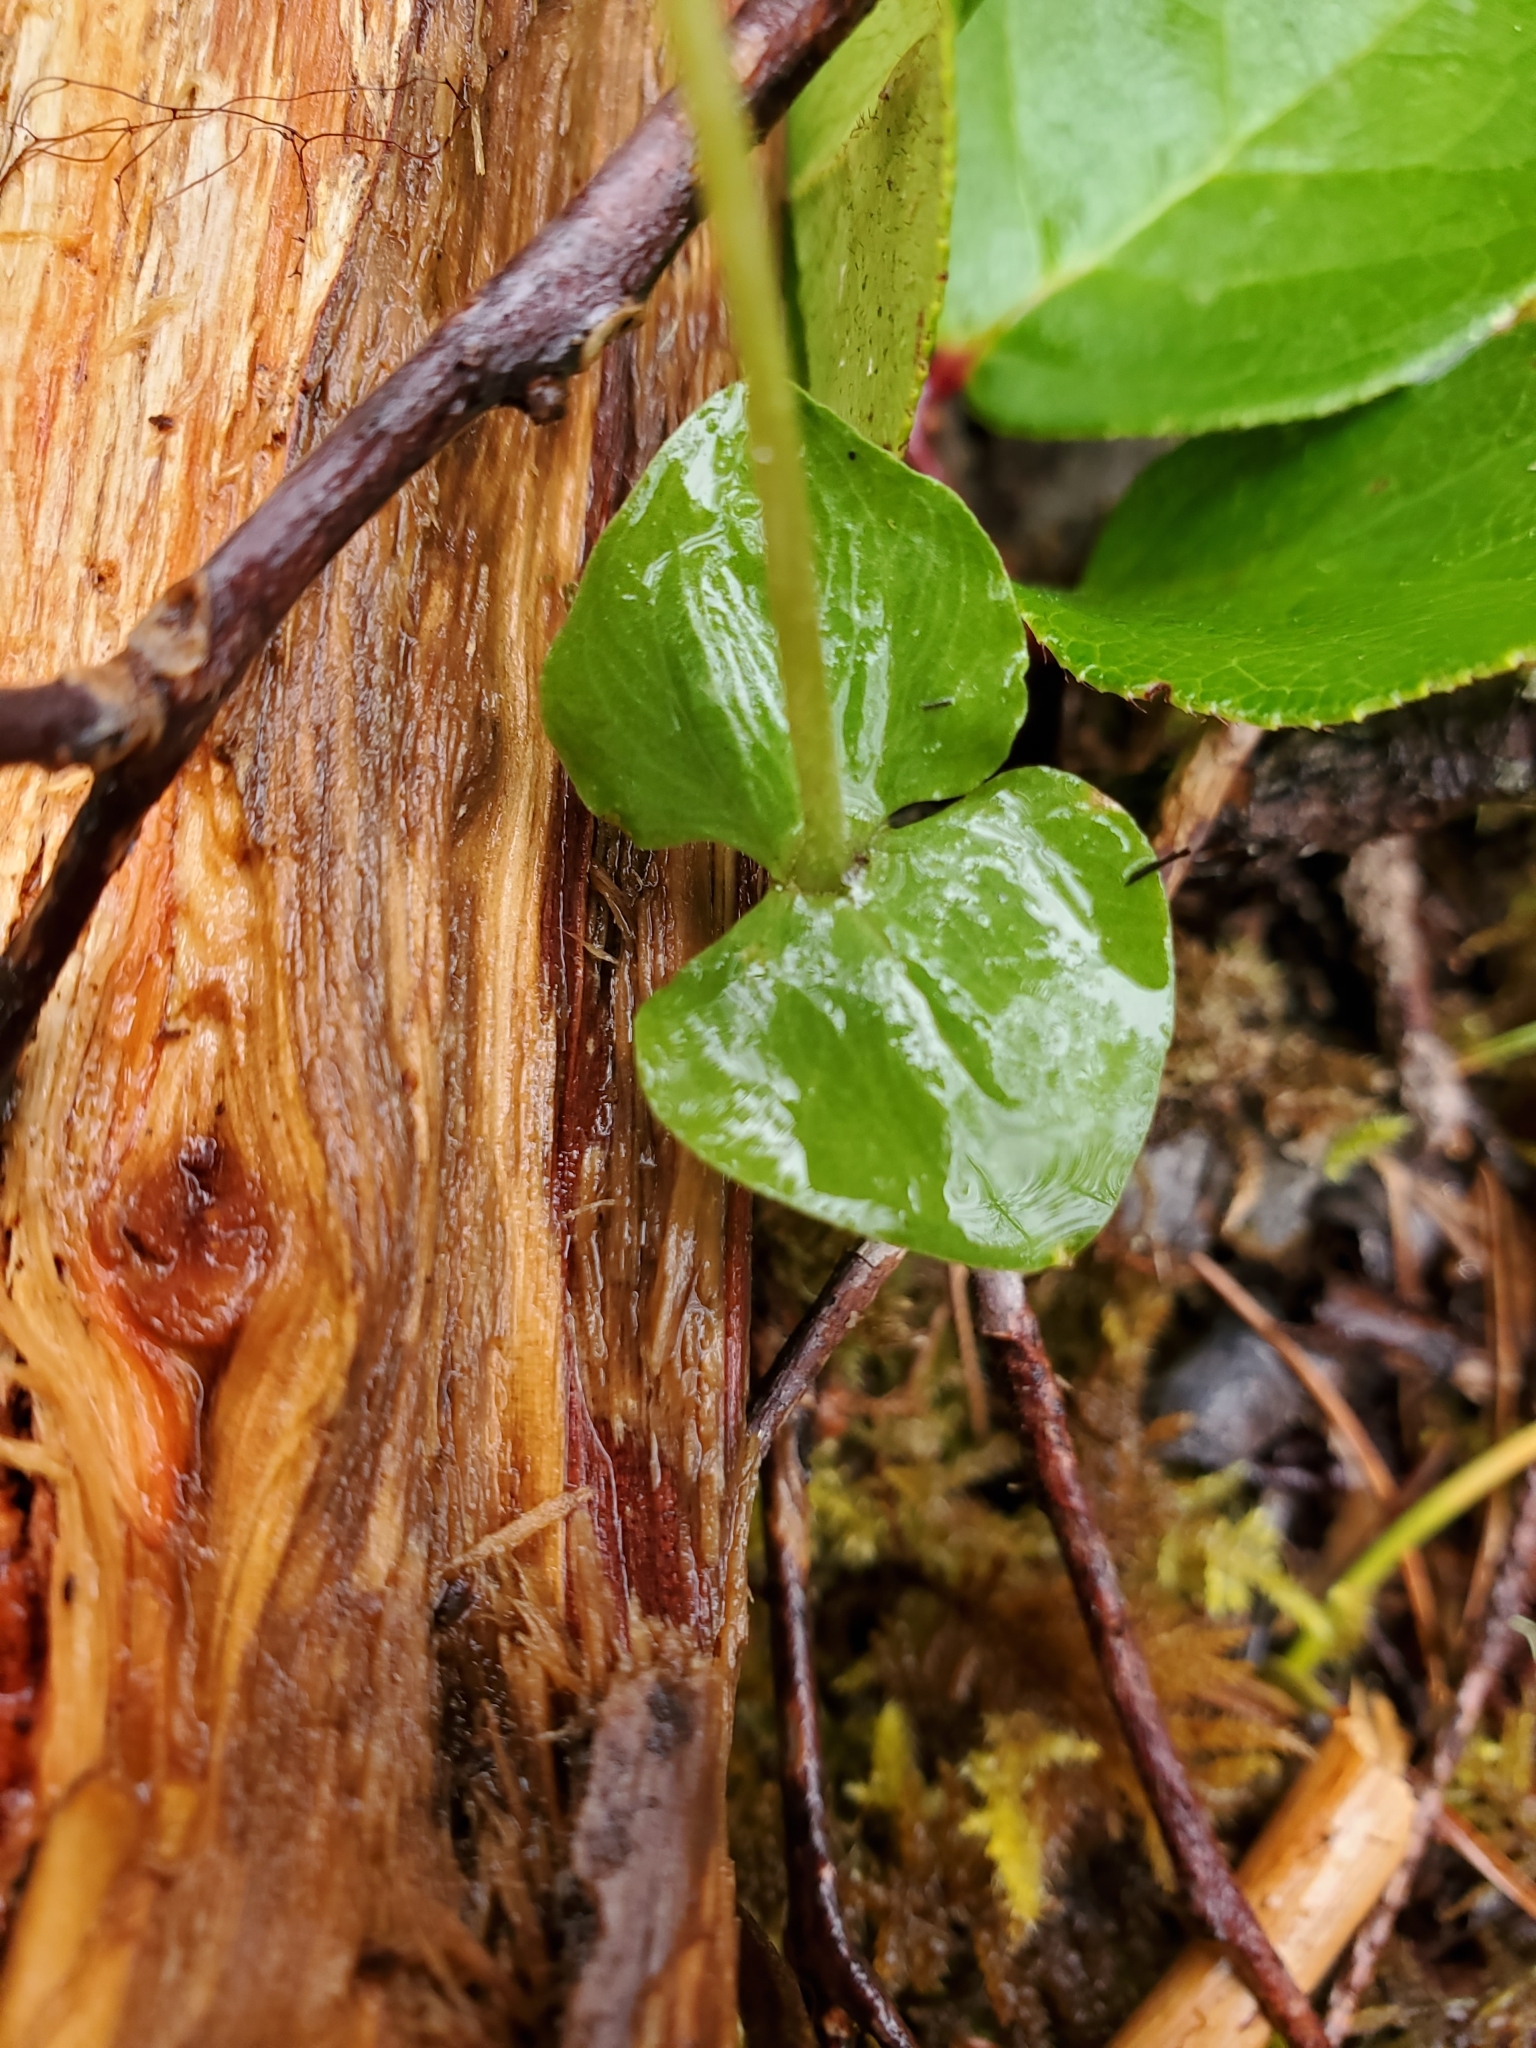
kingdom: Plantae
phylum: Tracheophyta
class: Liliopsida
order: Asparagales
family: Orchidaceae
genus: Neottia
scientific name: Neottia cordata
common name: Lesser twayblade
